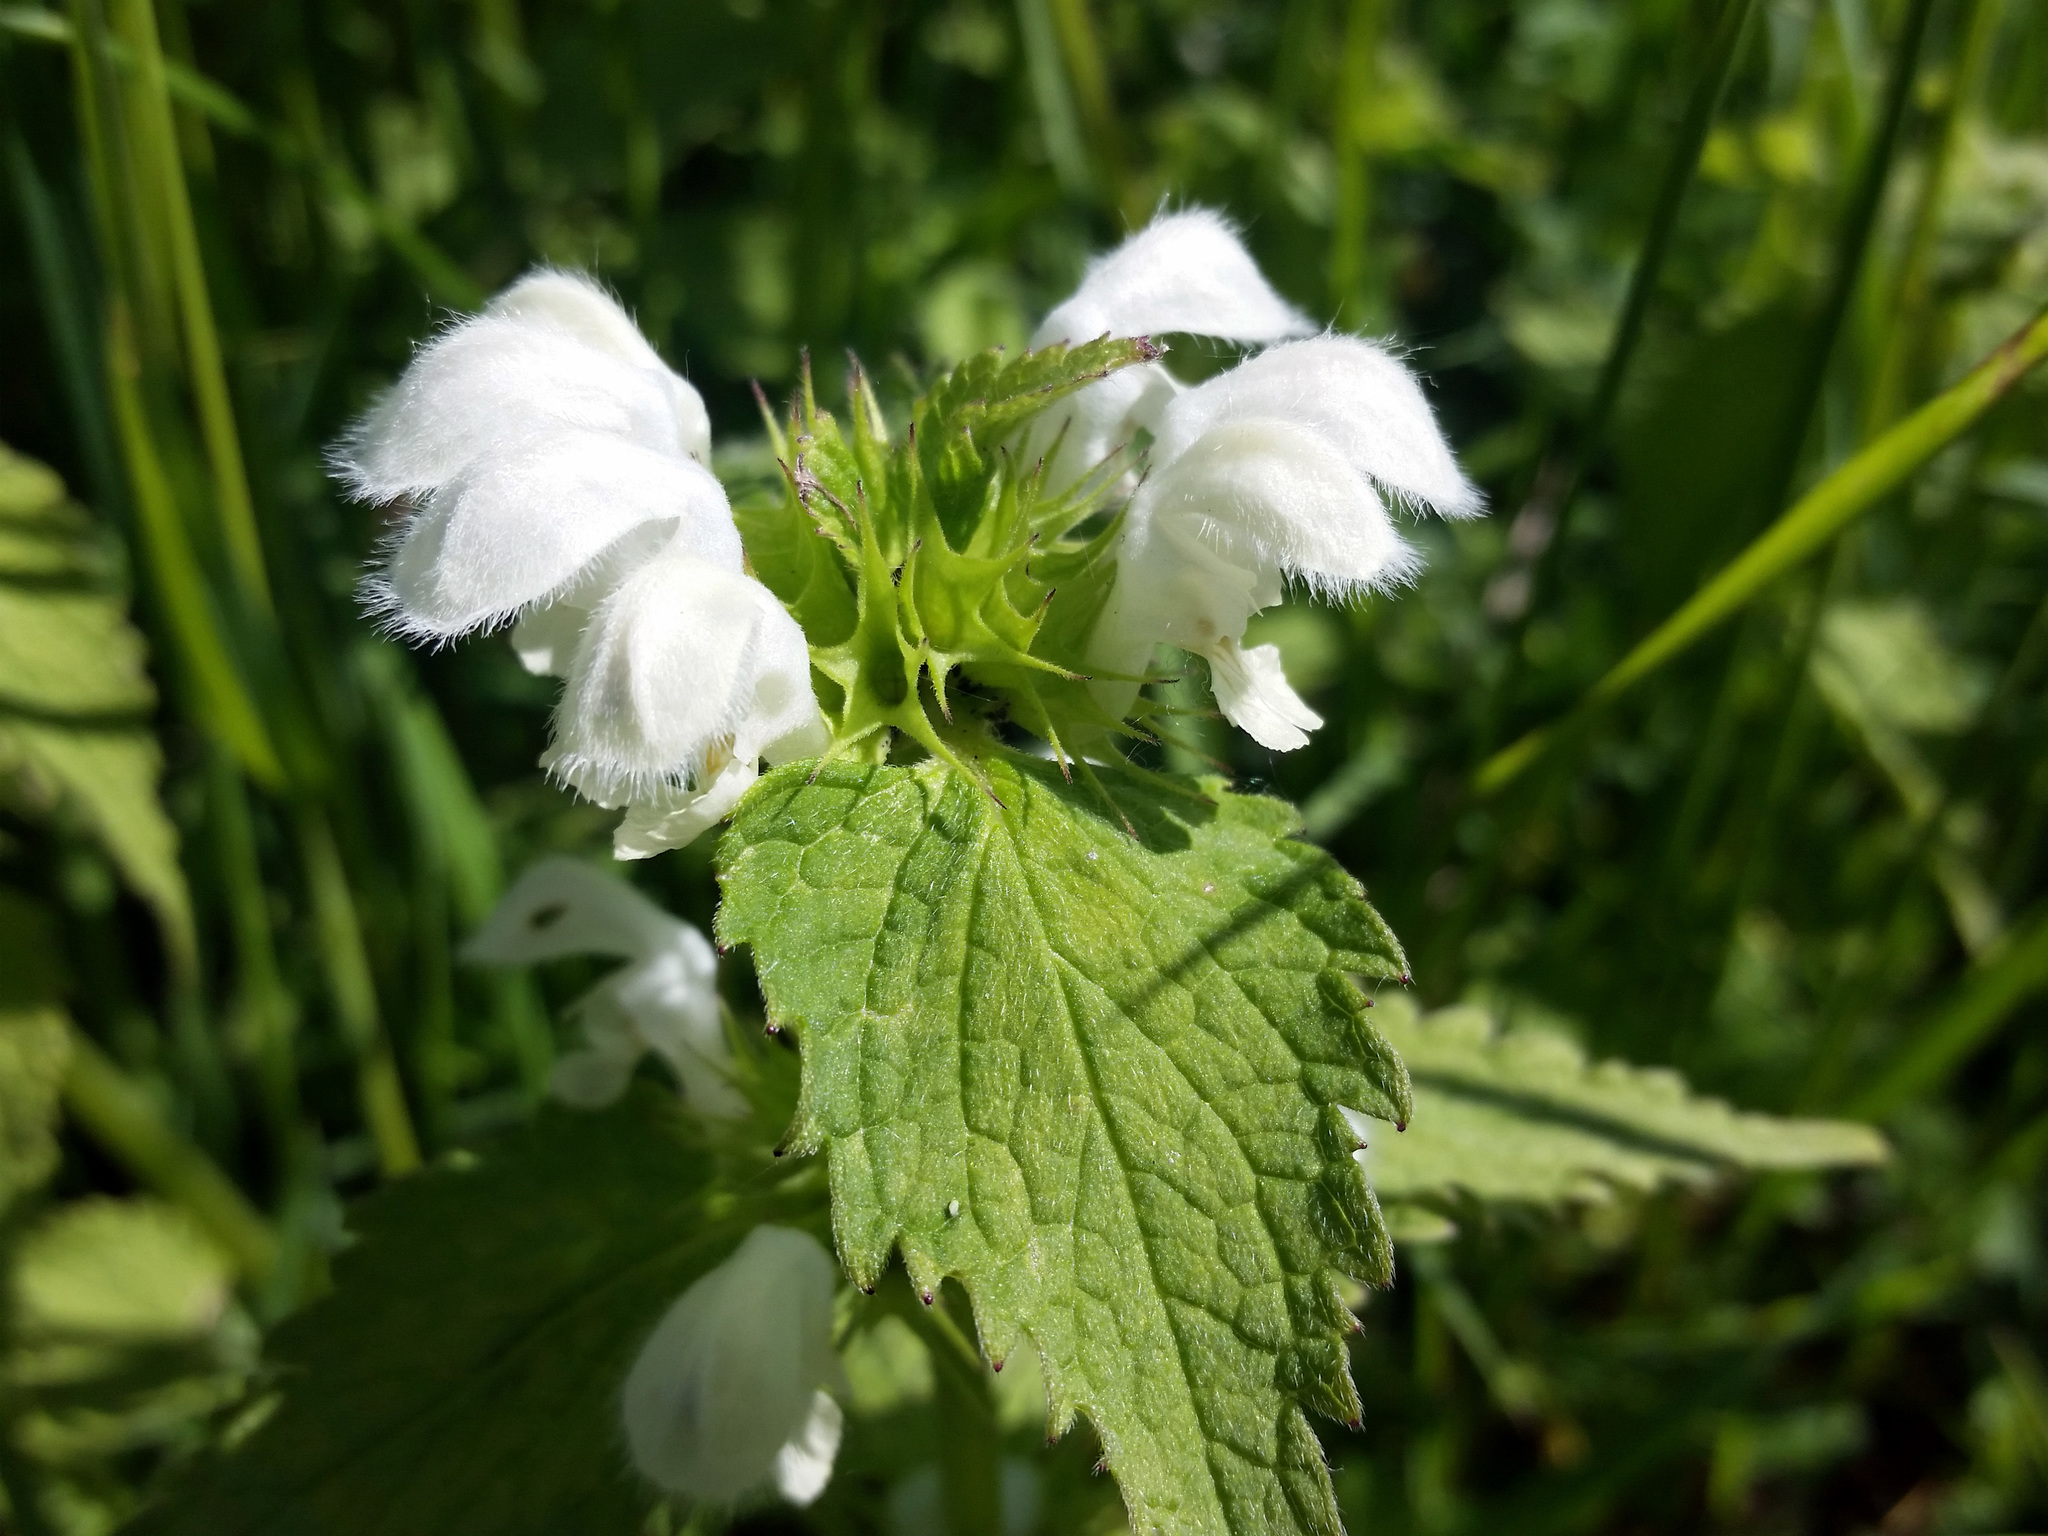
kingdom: Plantae
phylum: Tracheophyta
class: Magnoliopsida
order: Lamiales
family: Lamiaceae
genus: Lamium
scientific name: Lamium album
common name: White dead-nettle
